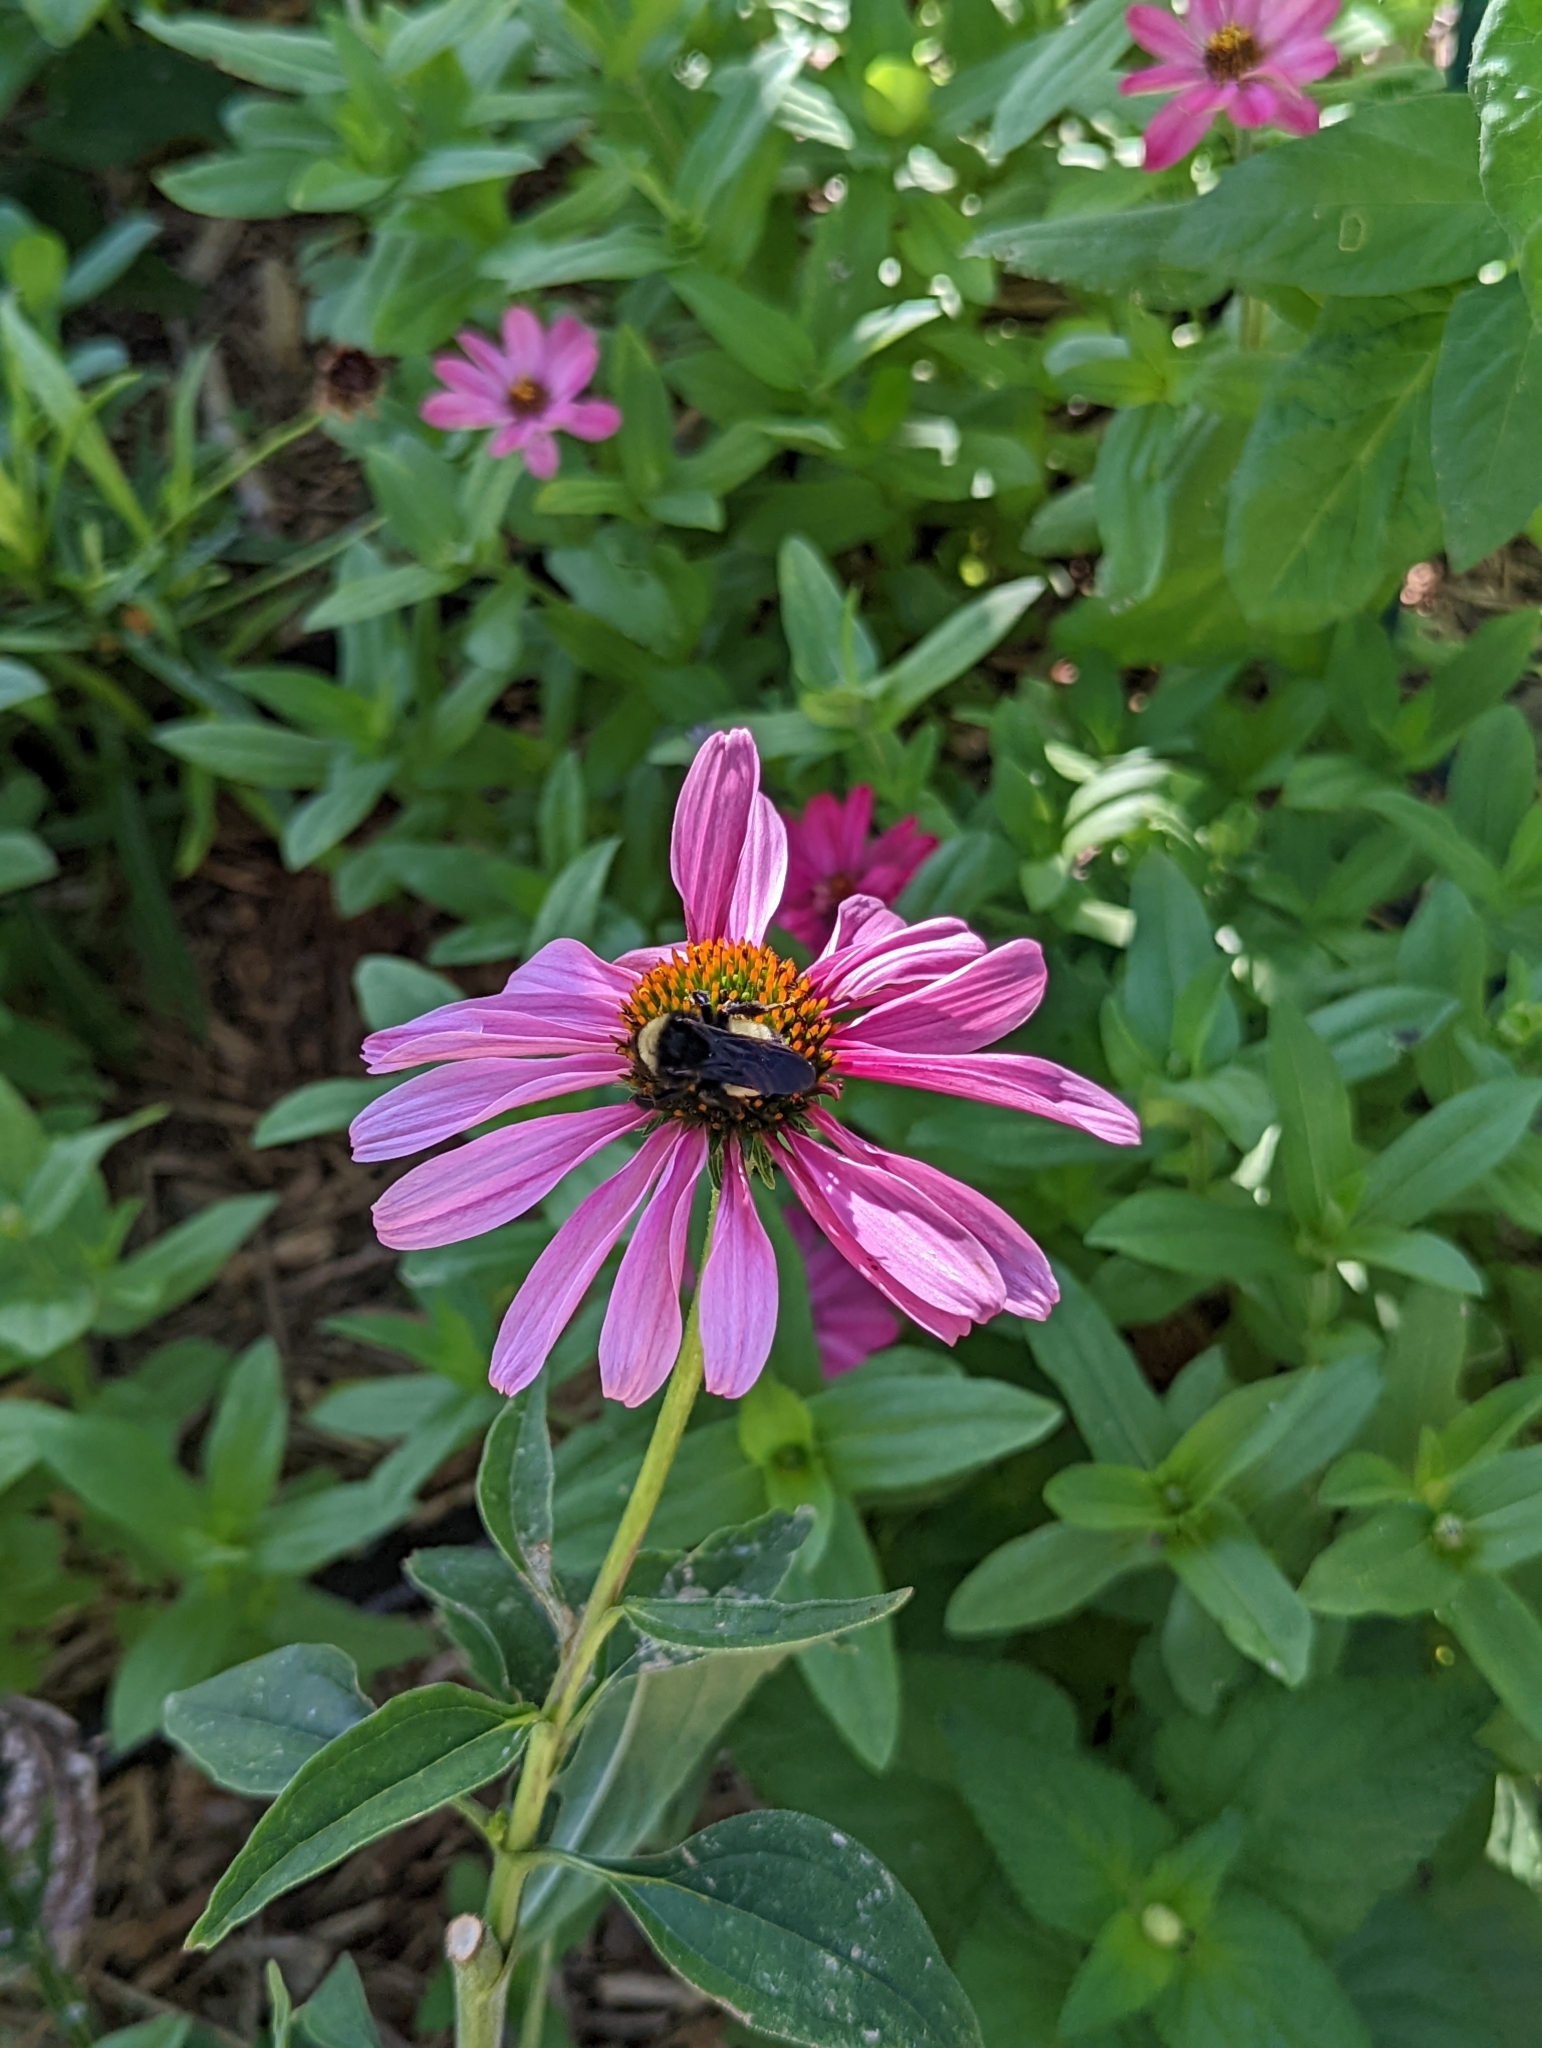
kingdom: Animalia
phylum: Arthropoda
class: Insecta
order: Hymenoptera
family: Apidae
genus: Bombus
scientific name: Bombus pensylvanicus
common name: Bumble bee
